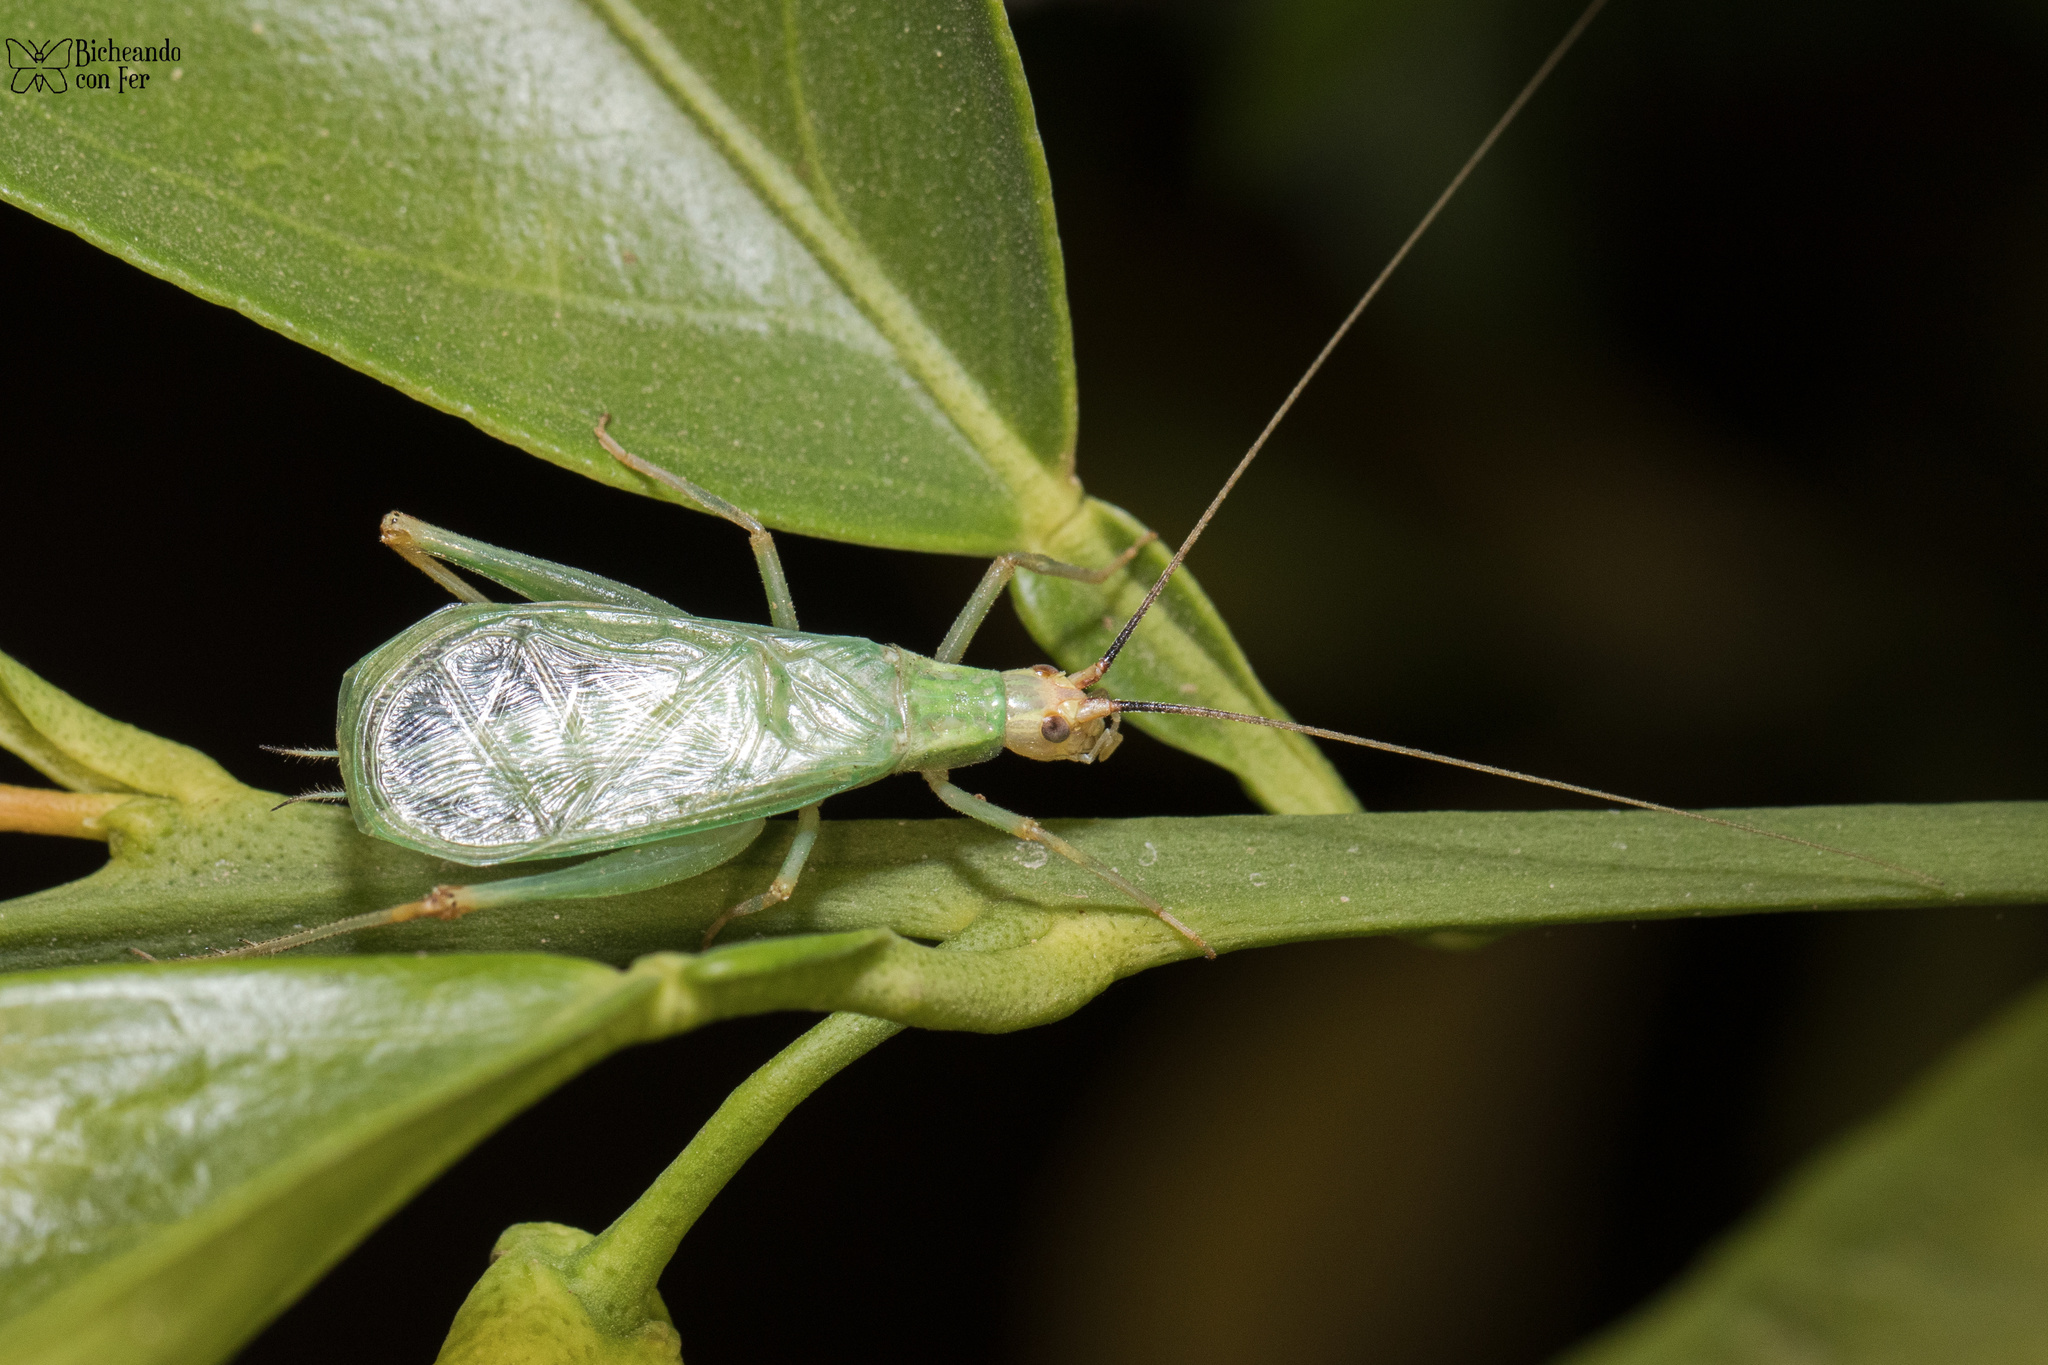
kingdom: Animalia
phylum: Arthropoda
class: Insecta
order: Orthoptera
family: Gryllidae
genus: Oecanthus
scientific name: Oecanthus californicus
